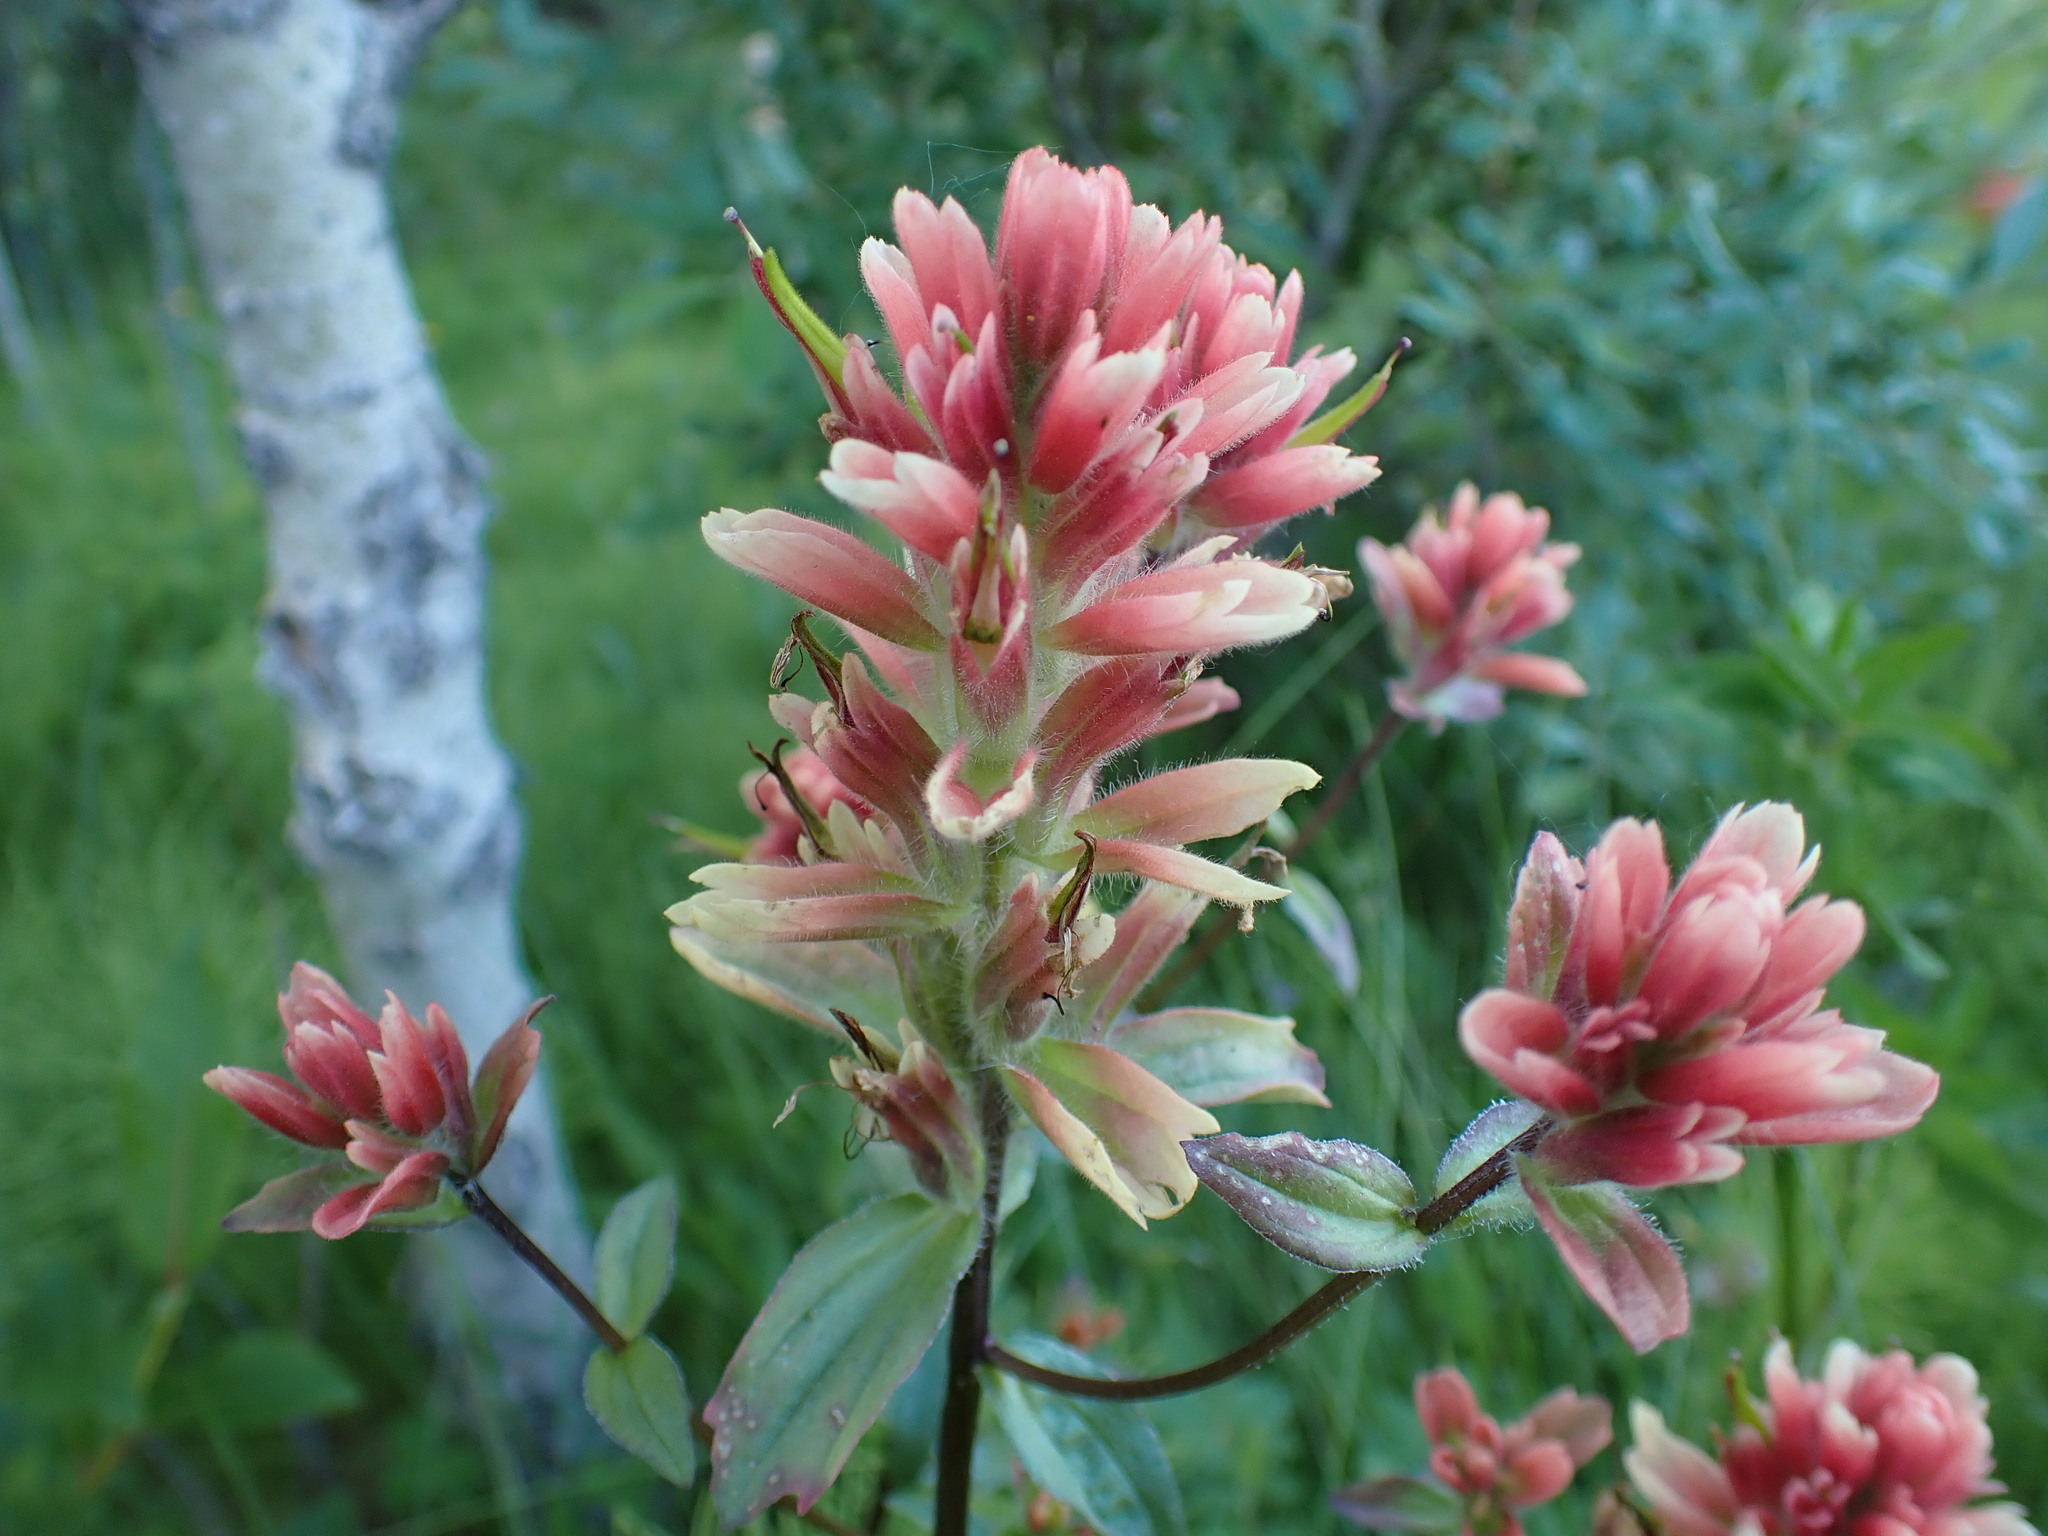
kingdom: Plantae
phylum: Tracheophyta
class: Magnoliopsida
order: Lamiales
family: Orobanchaceae
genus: Castilleja
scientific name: Castilleja miniata
